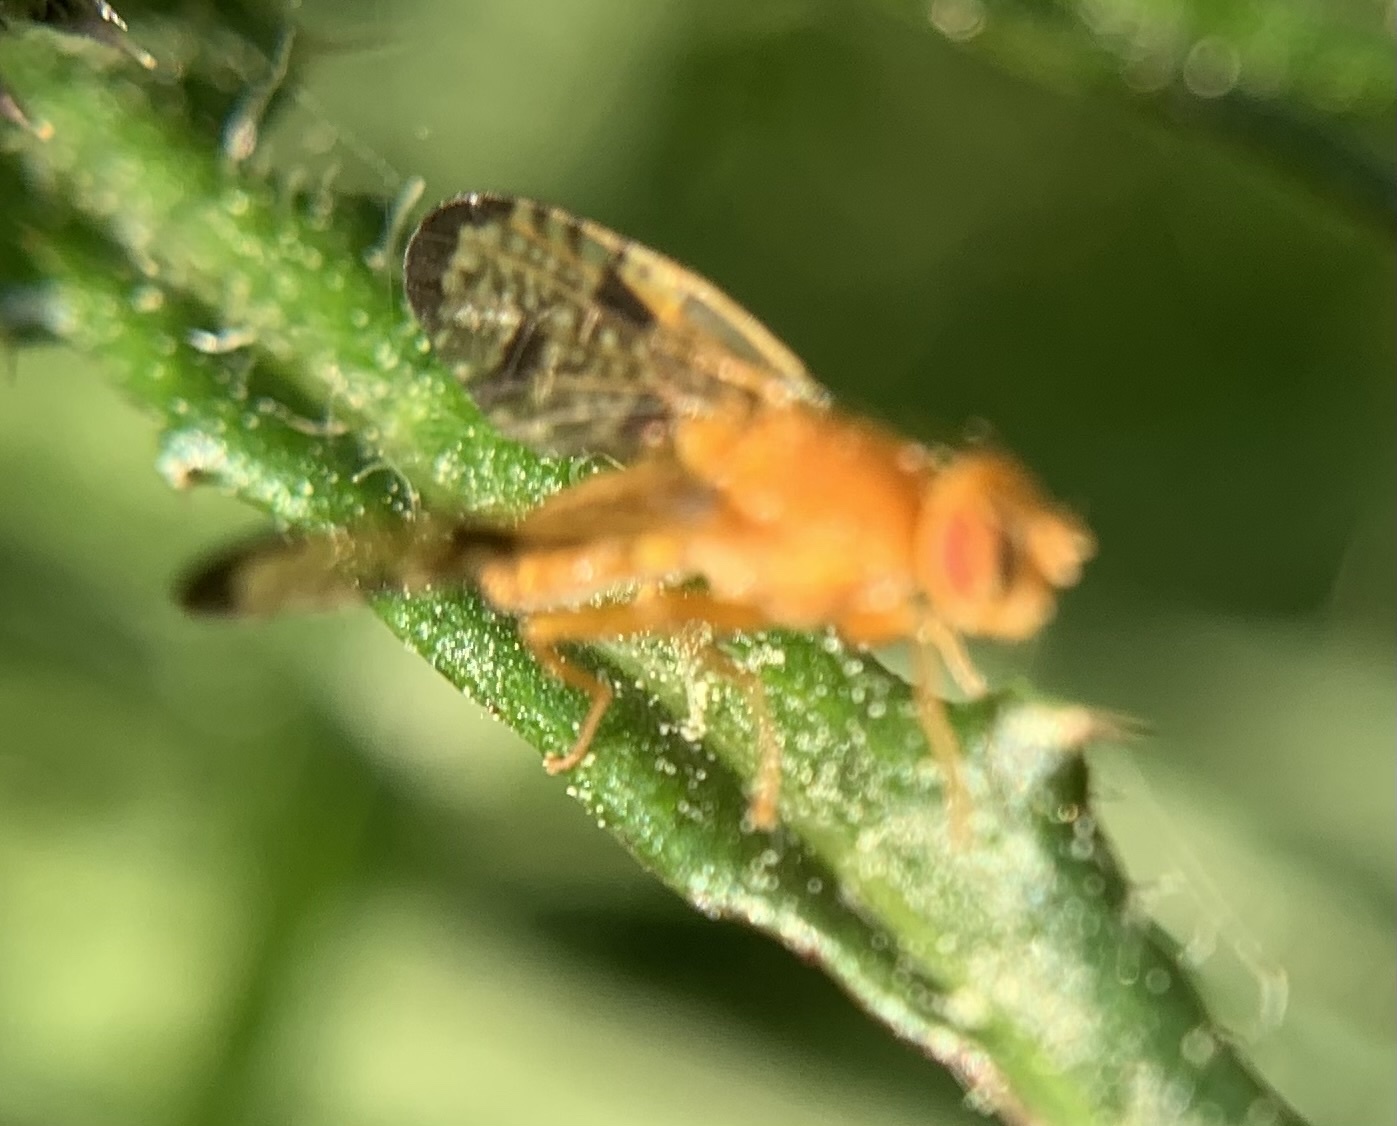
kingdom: Animalia
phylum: Arthropoda
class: Insecta
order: Diptera
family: Tephritidae
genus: Xyphosia
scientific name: Xyphosia miliaria
